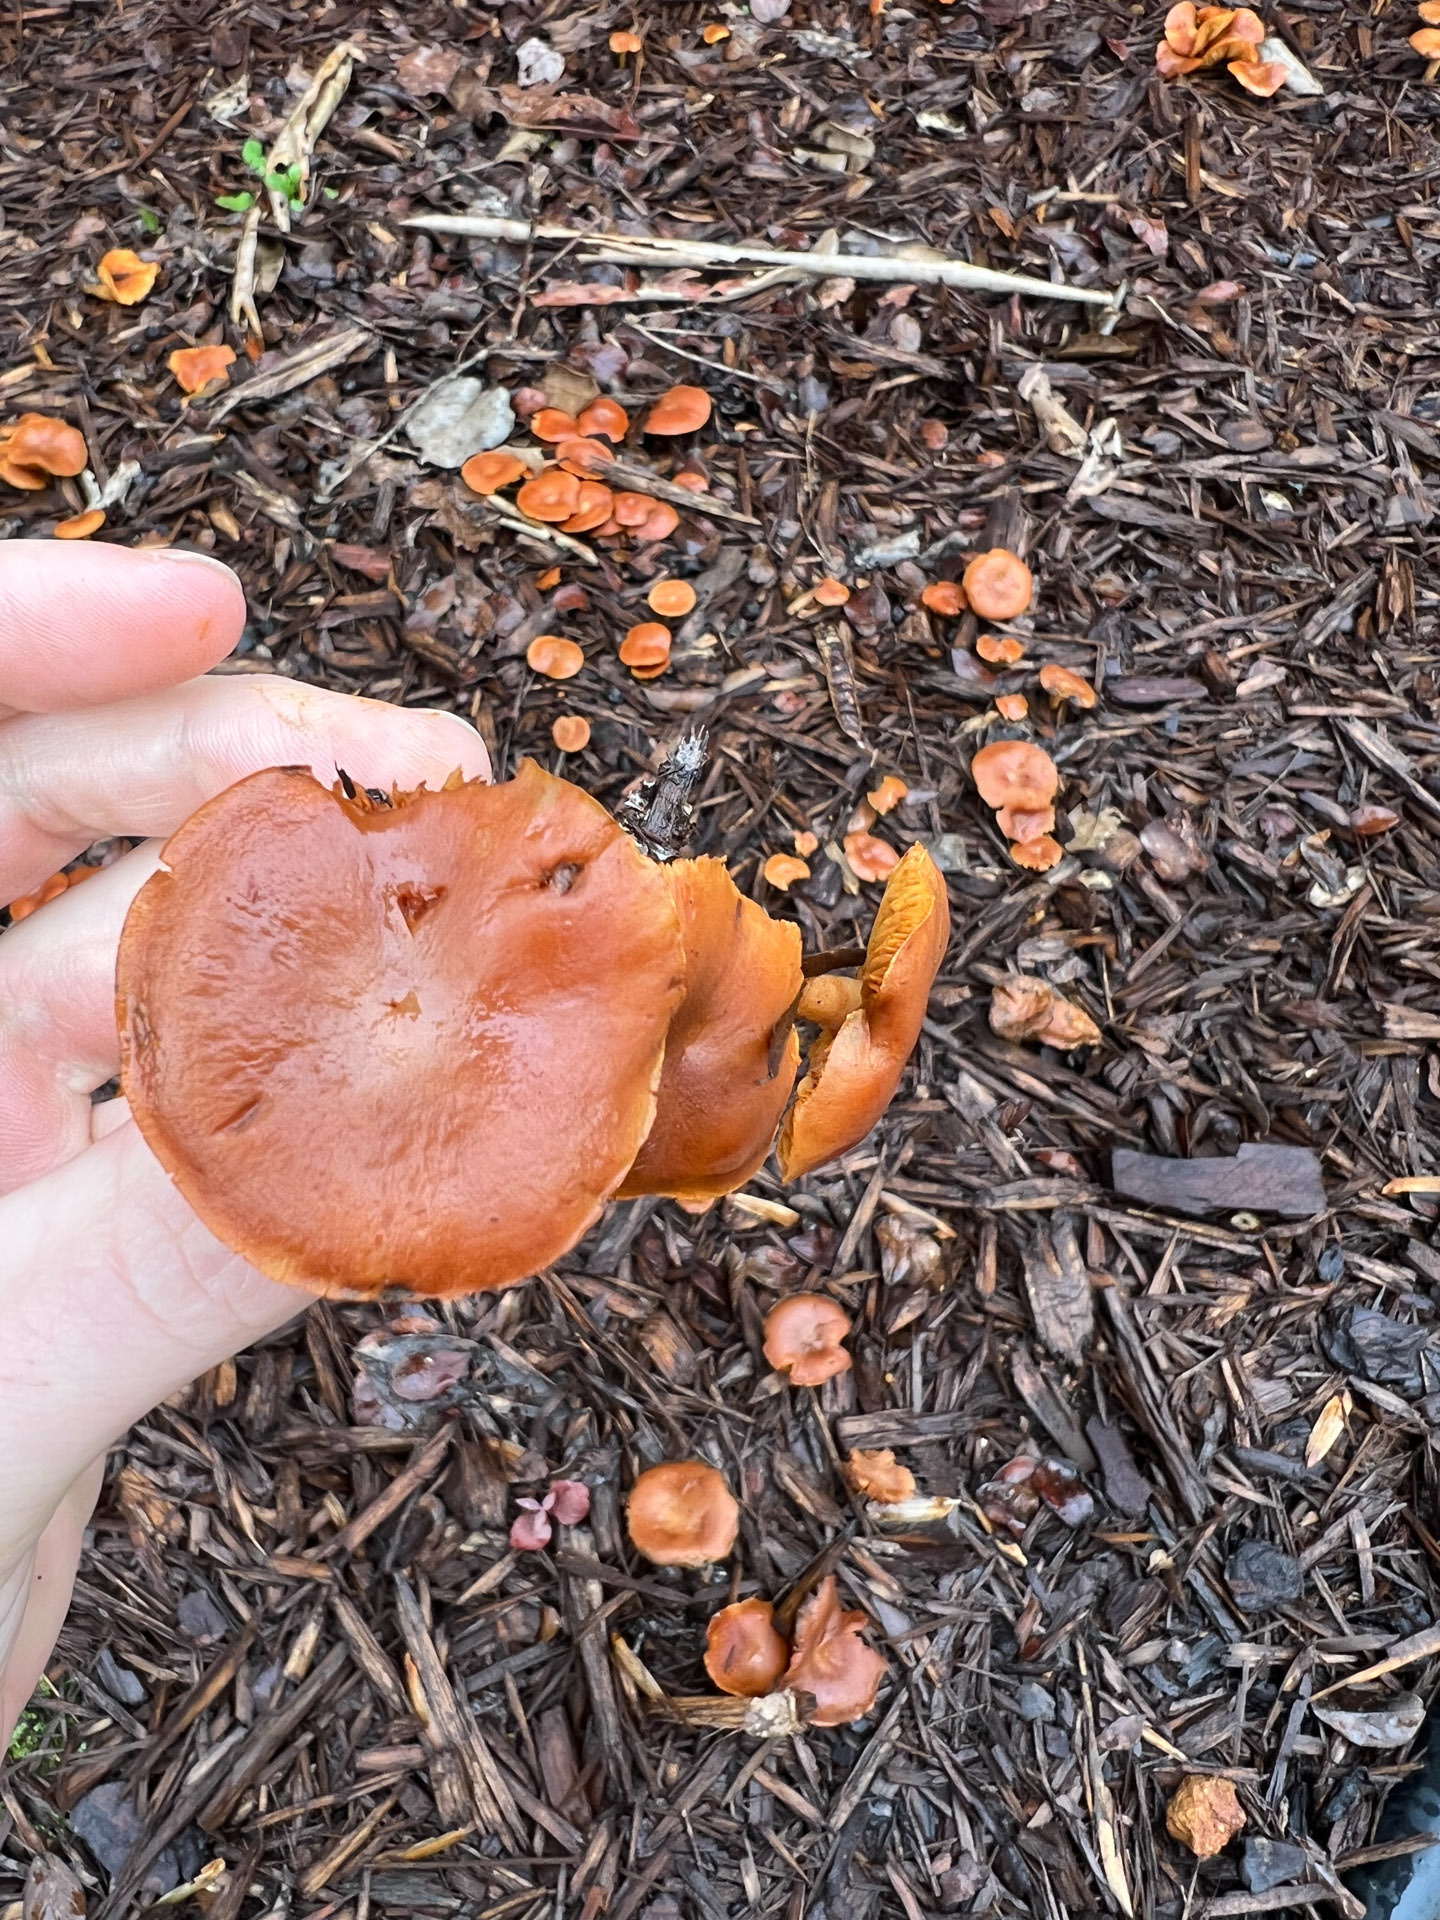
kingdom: Fungi
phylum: Basidiomycota
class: Agaricomycetes
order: Agaricales
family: Tubariaceae
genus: Tubaria
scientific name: Tubaria furfuracea
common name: Scurfy twiglet
